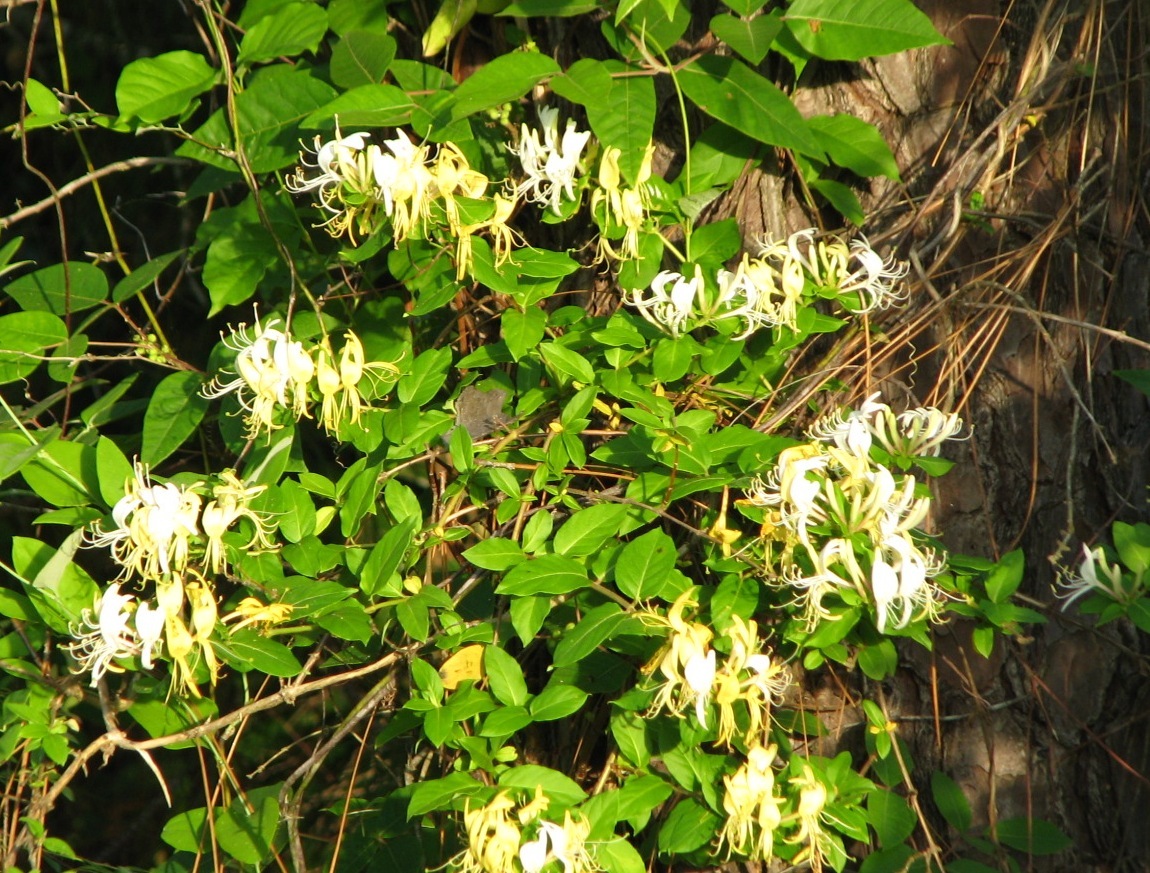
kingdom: Plantae
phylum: Tracheophyta
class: Magnoliopsida
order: Dipsacales
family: Caprifoliaceae
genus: Lonicera
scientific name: Lonicera japonica
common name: Japanese honeysuckle
